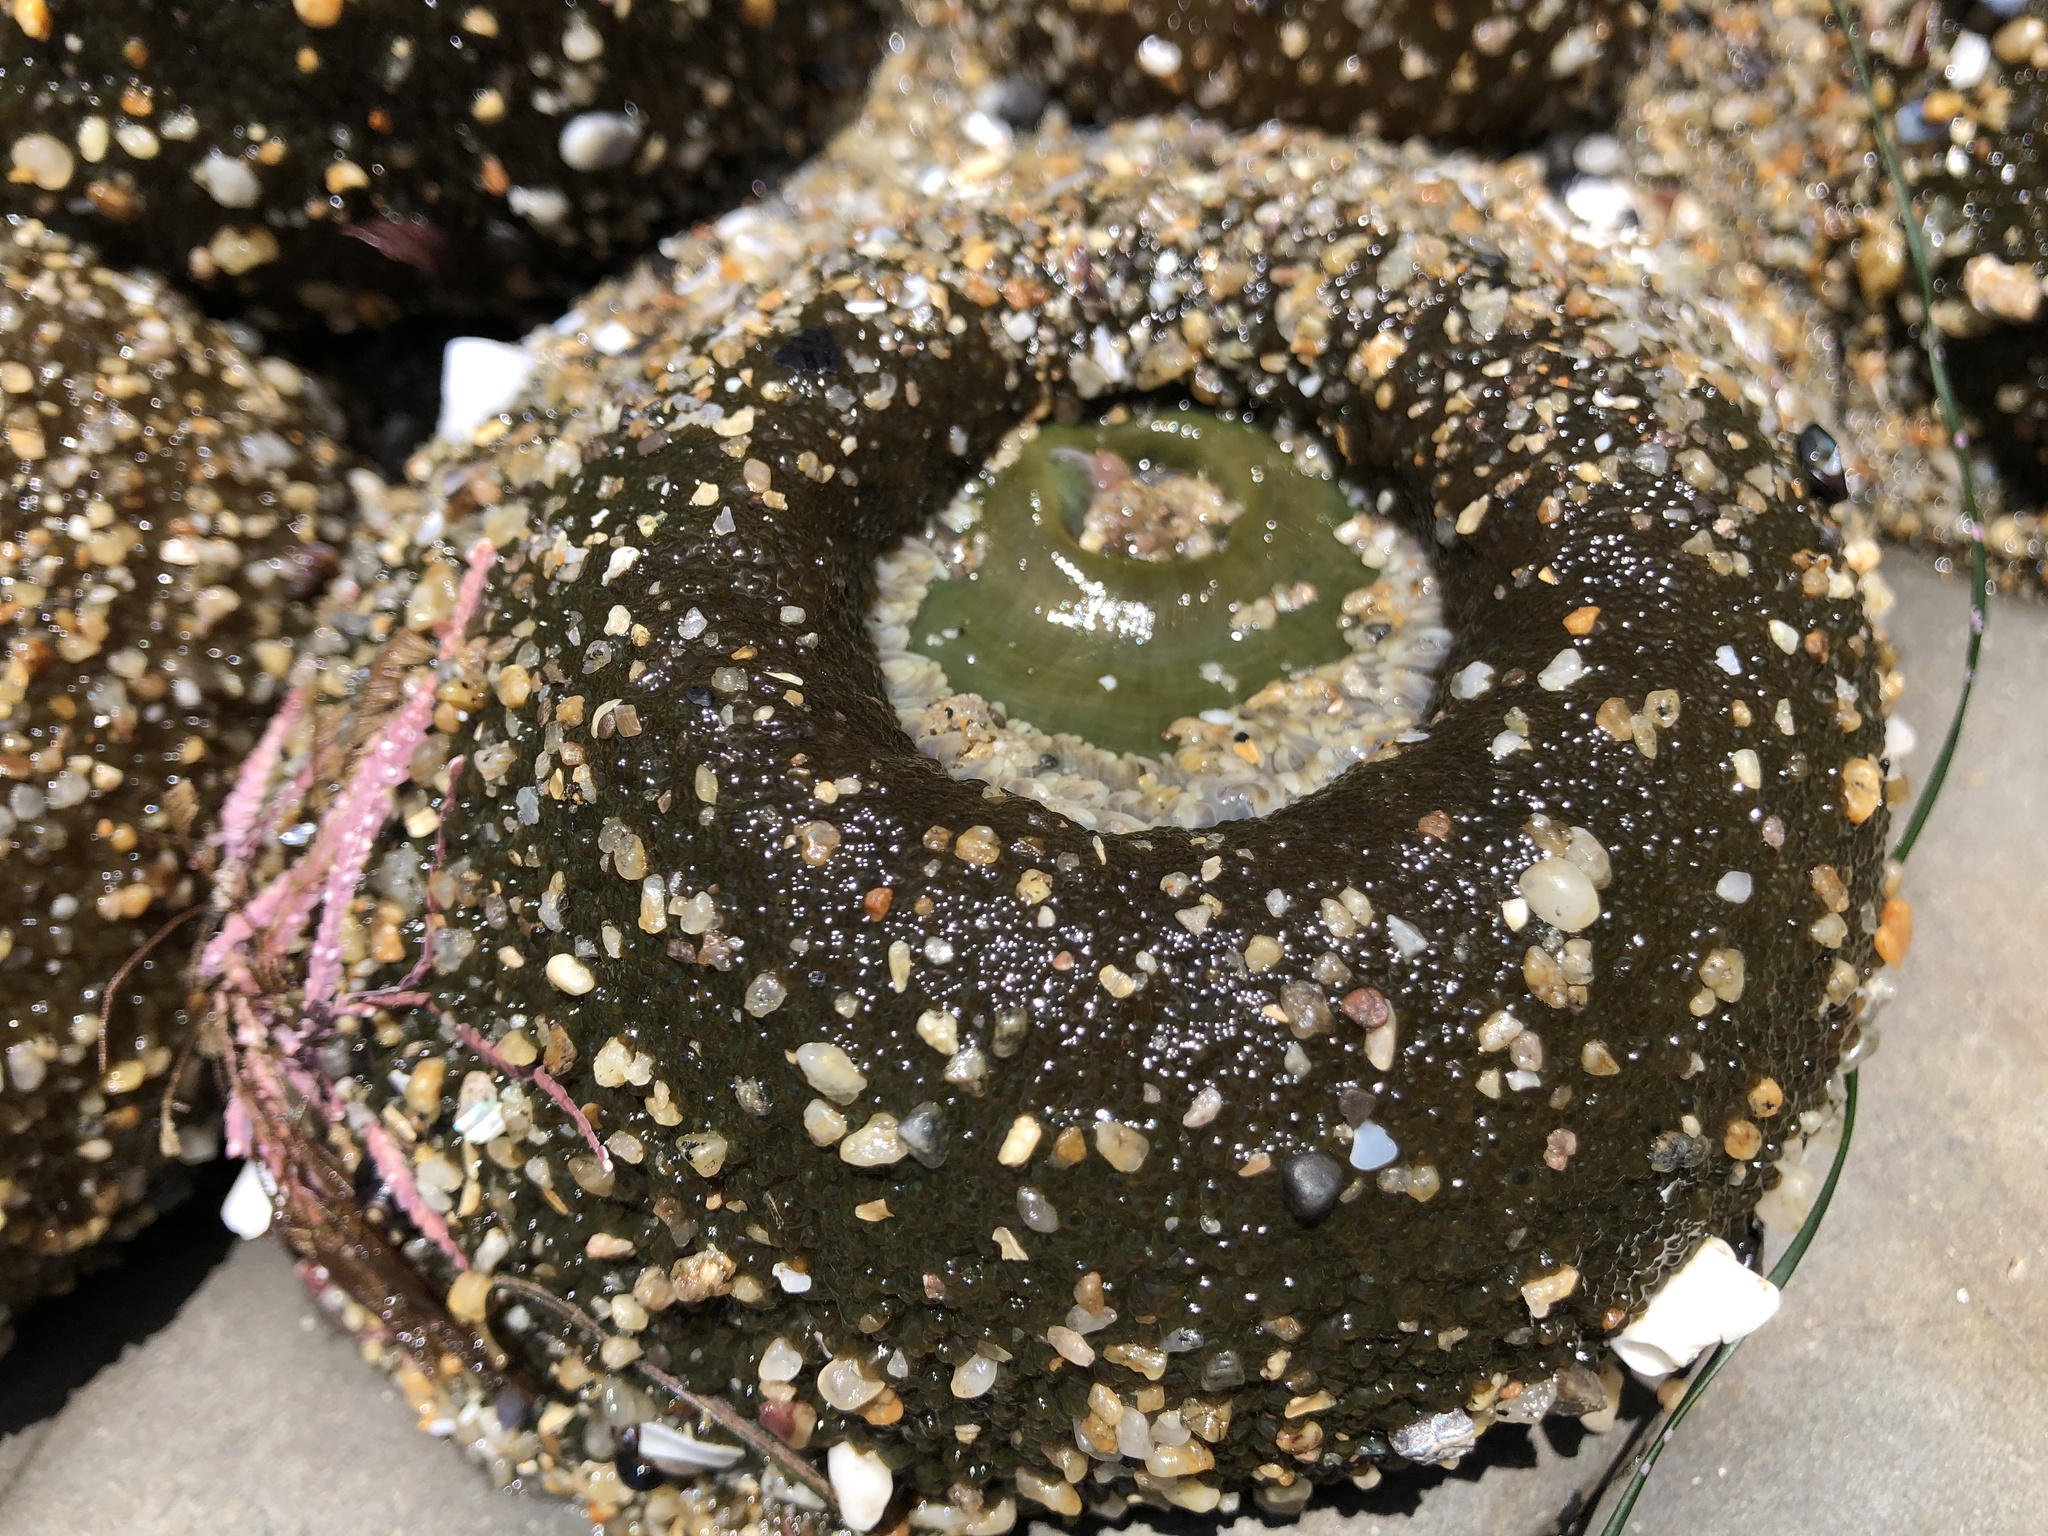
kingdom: Animalia
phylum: Cnidaria
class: Anthozoa
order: Actiniaria
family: Actiniidae
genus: Anthopleura
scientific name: Anthopleura xanthogrammica
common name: Giant green anemone
